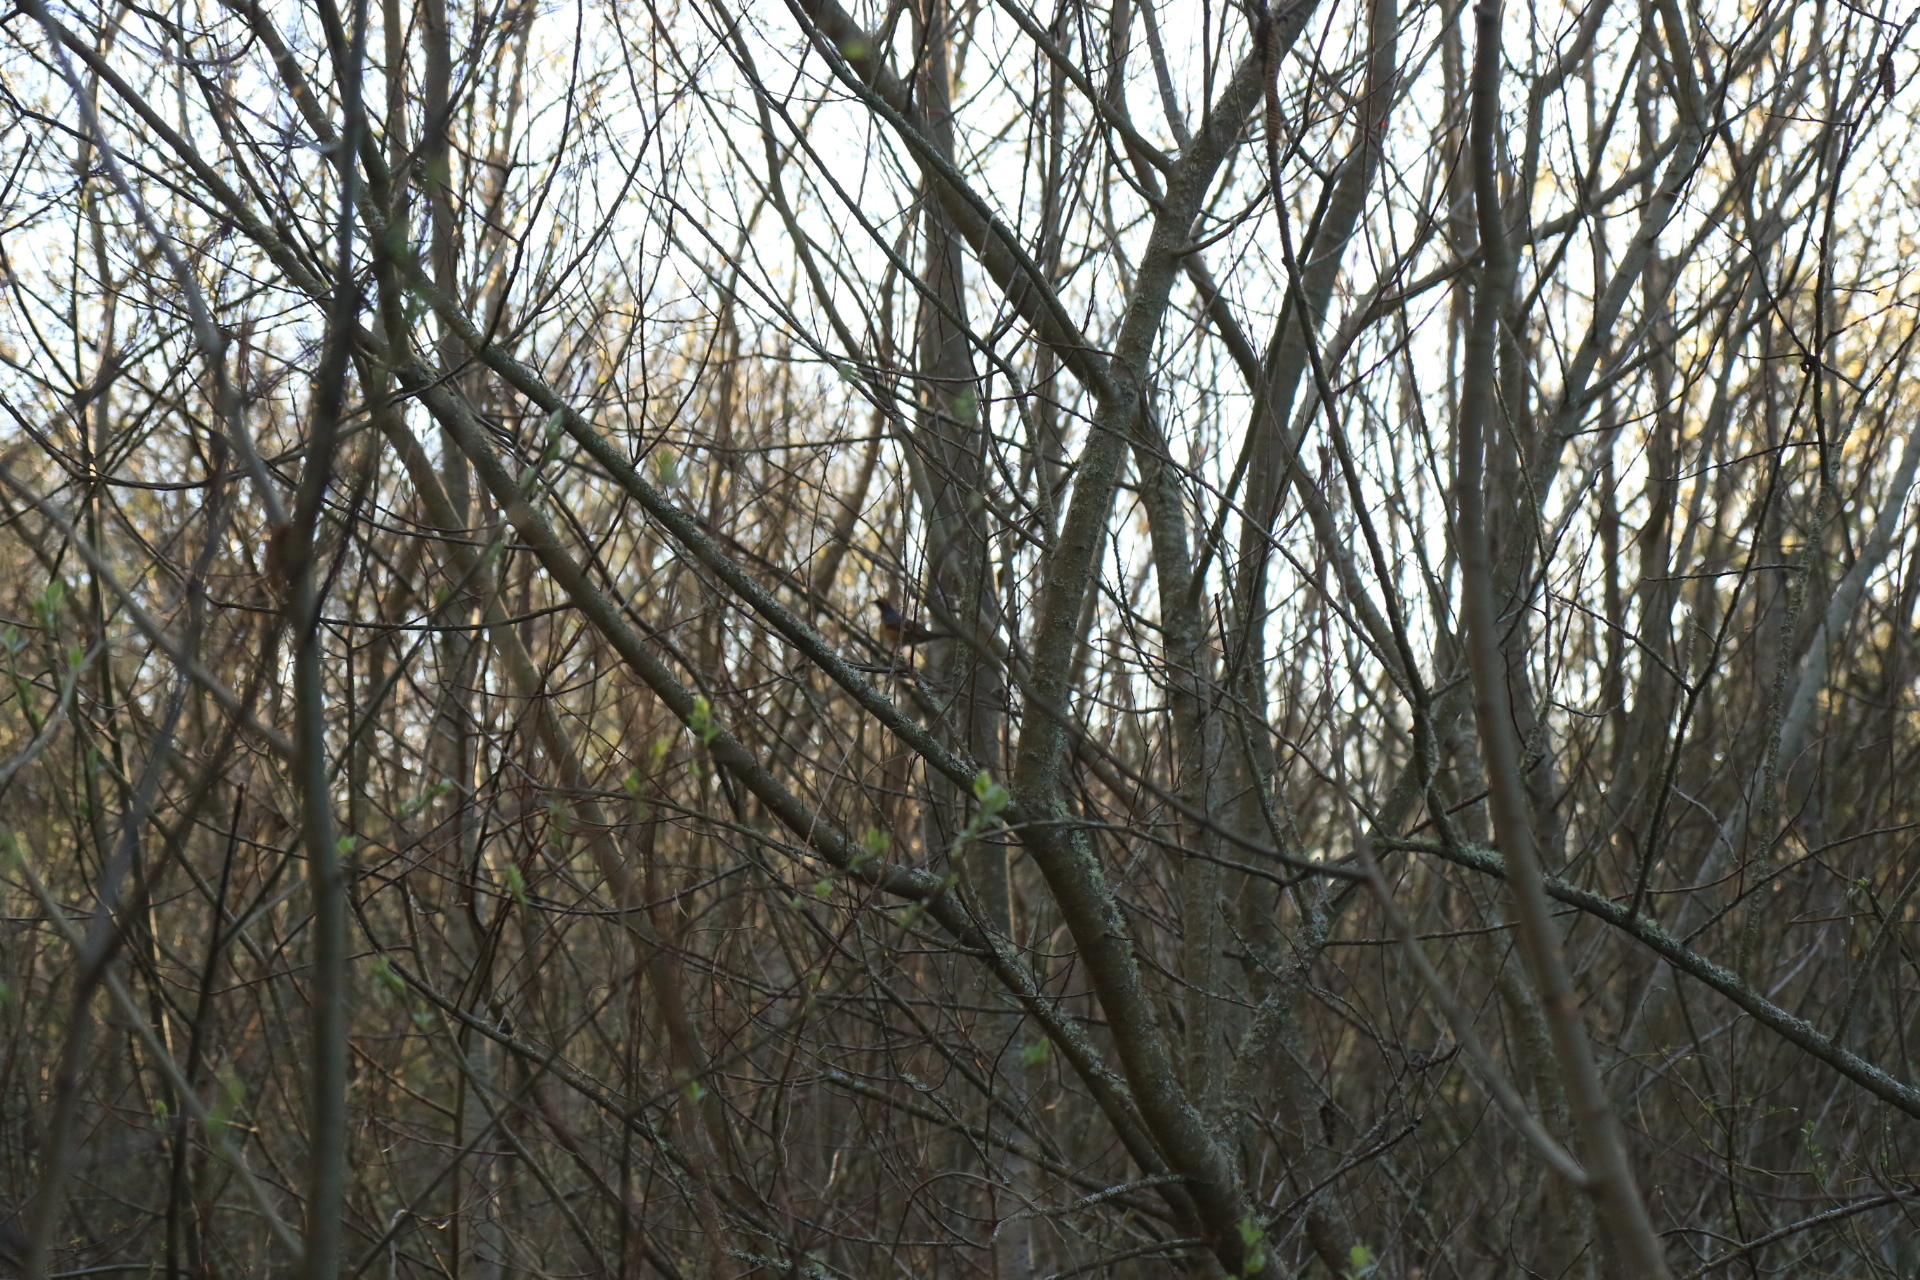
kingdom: Animalia
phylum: Chordata
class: Aves
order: Passeriformes
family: Turdidae
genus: Ixoreus
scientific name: Ixoreus naevius
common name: Varied thrush
